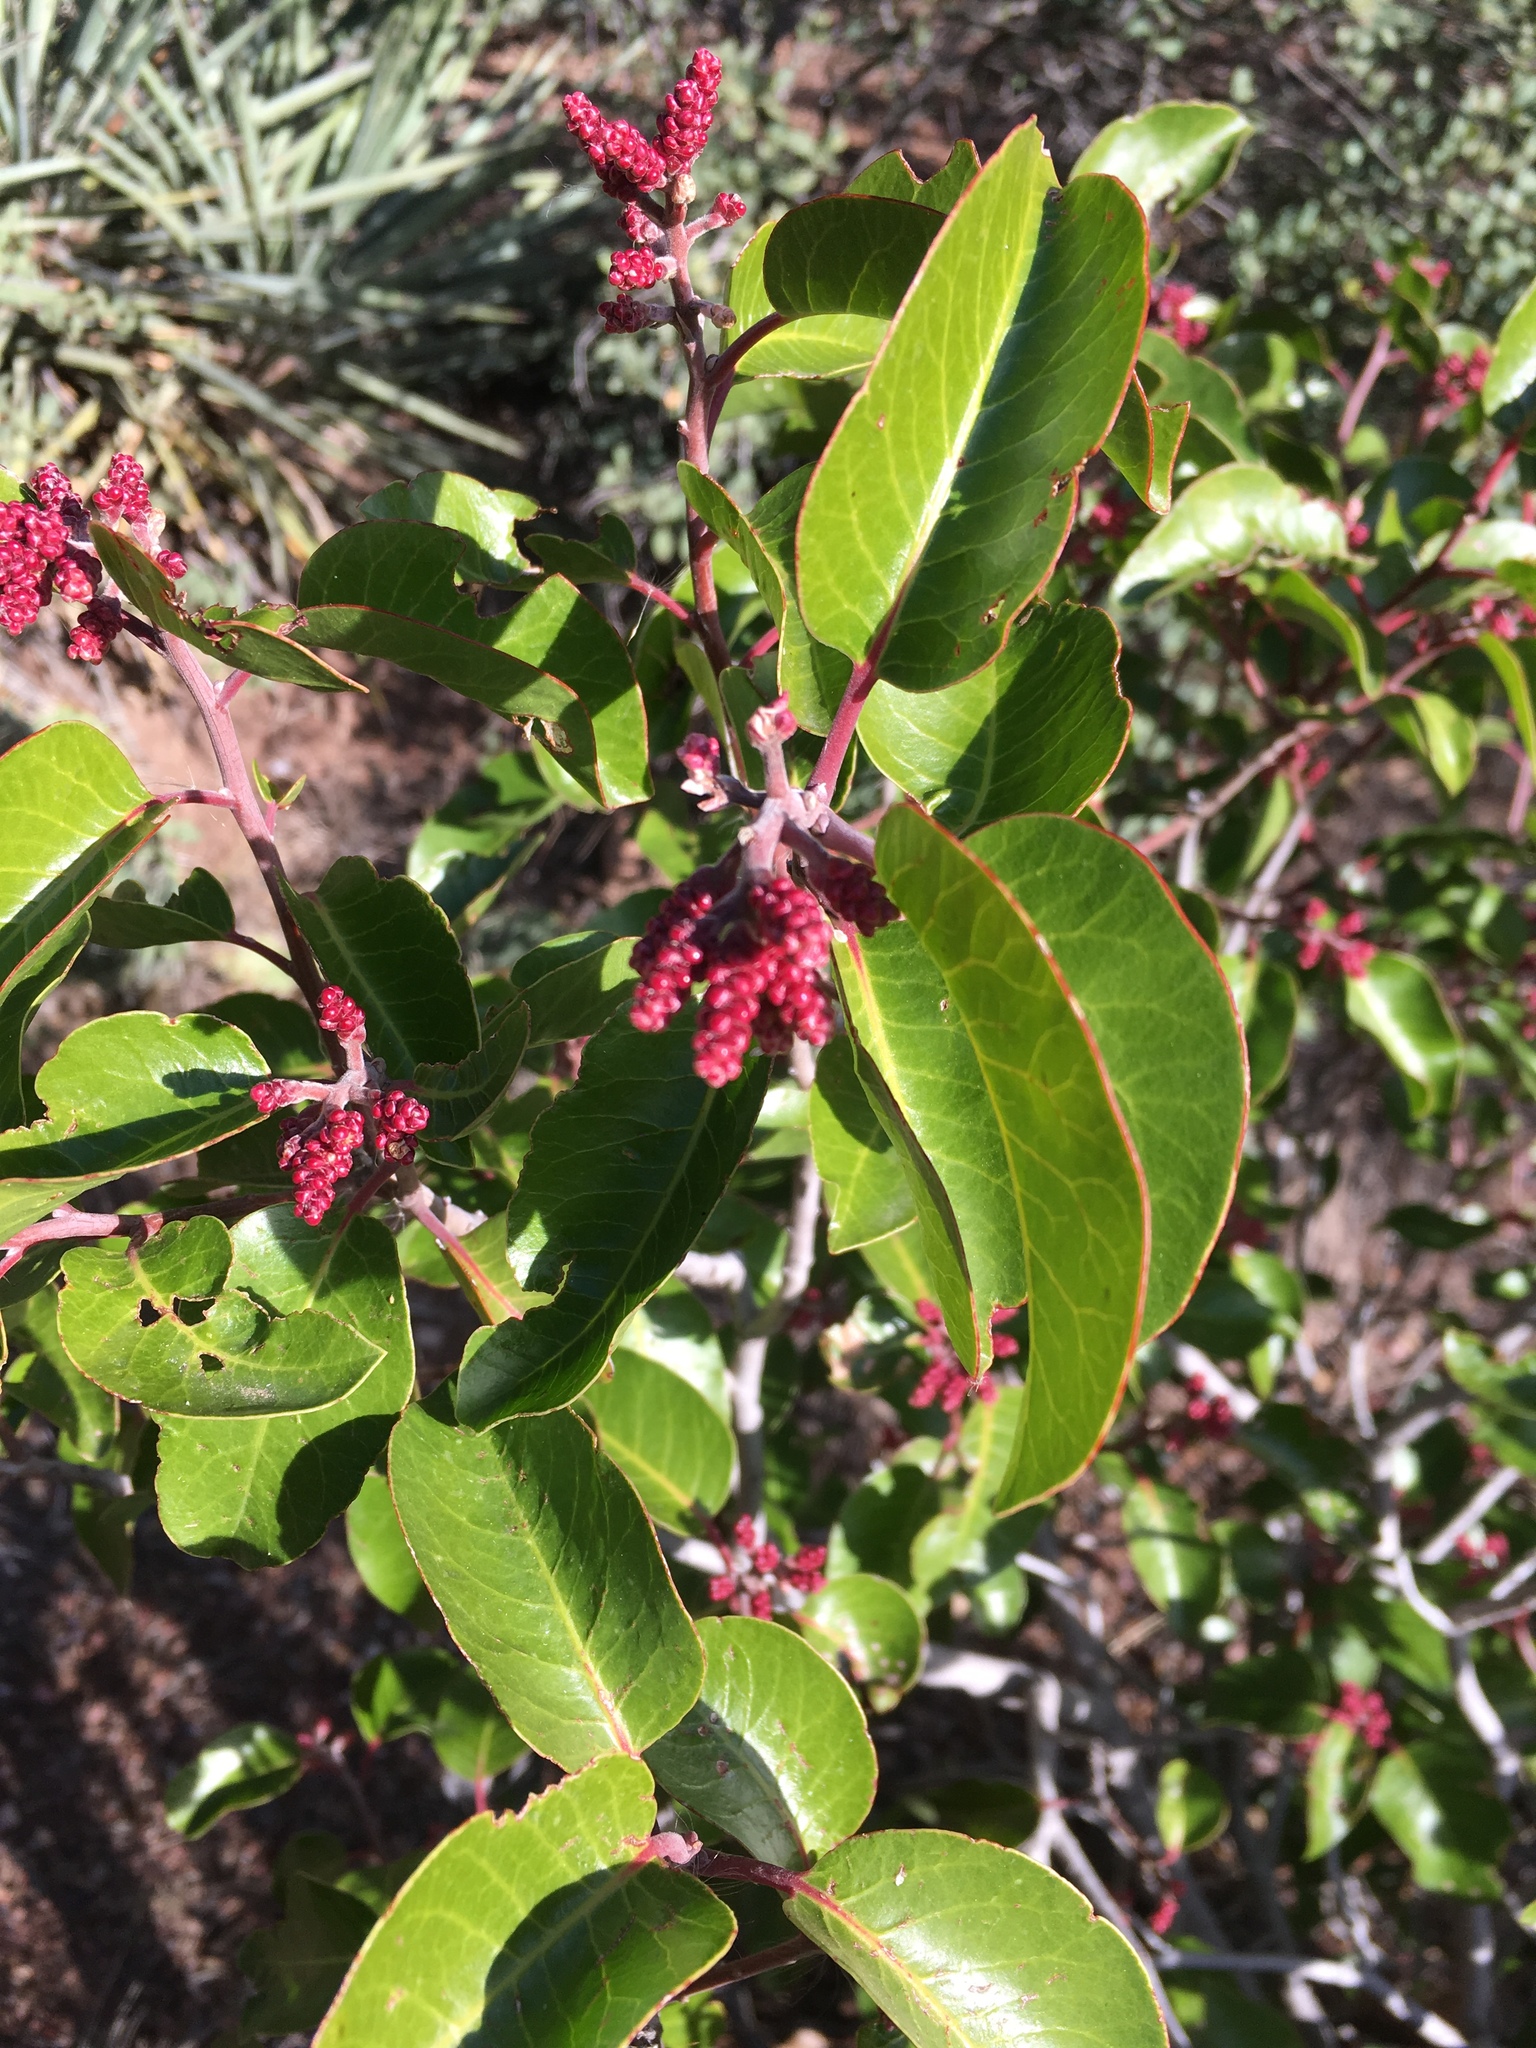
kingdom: Plantae
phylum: Tracheophyta
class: Magnoliopsida
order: Sapindales
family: Anacardiaceae
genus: Rhus
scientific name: Rhus ovata
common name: Sugar sumac
